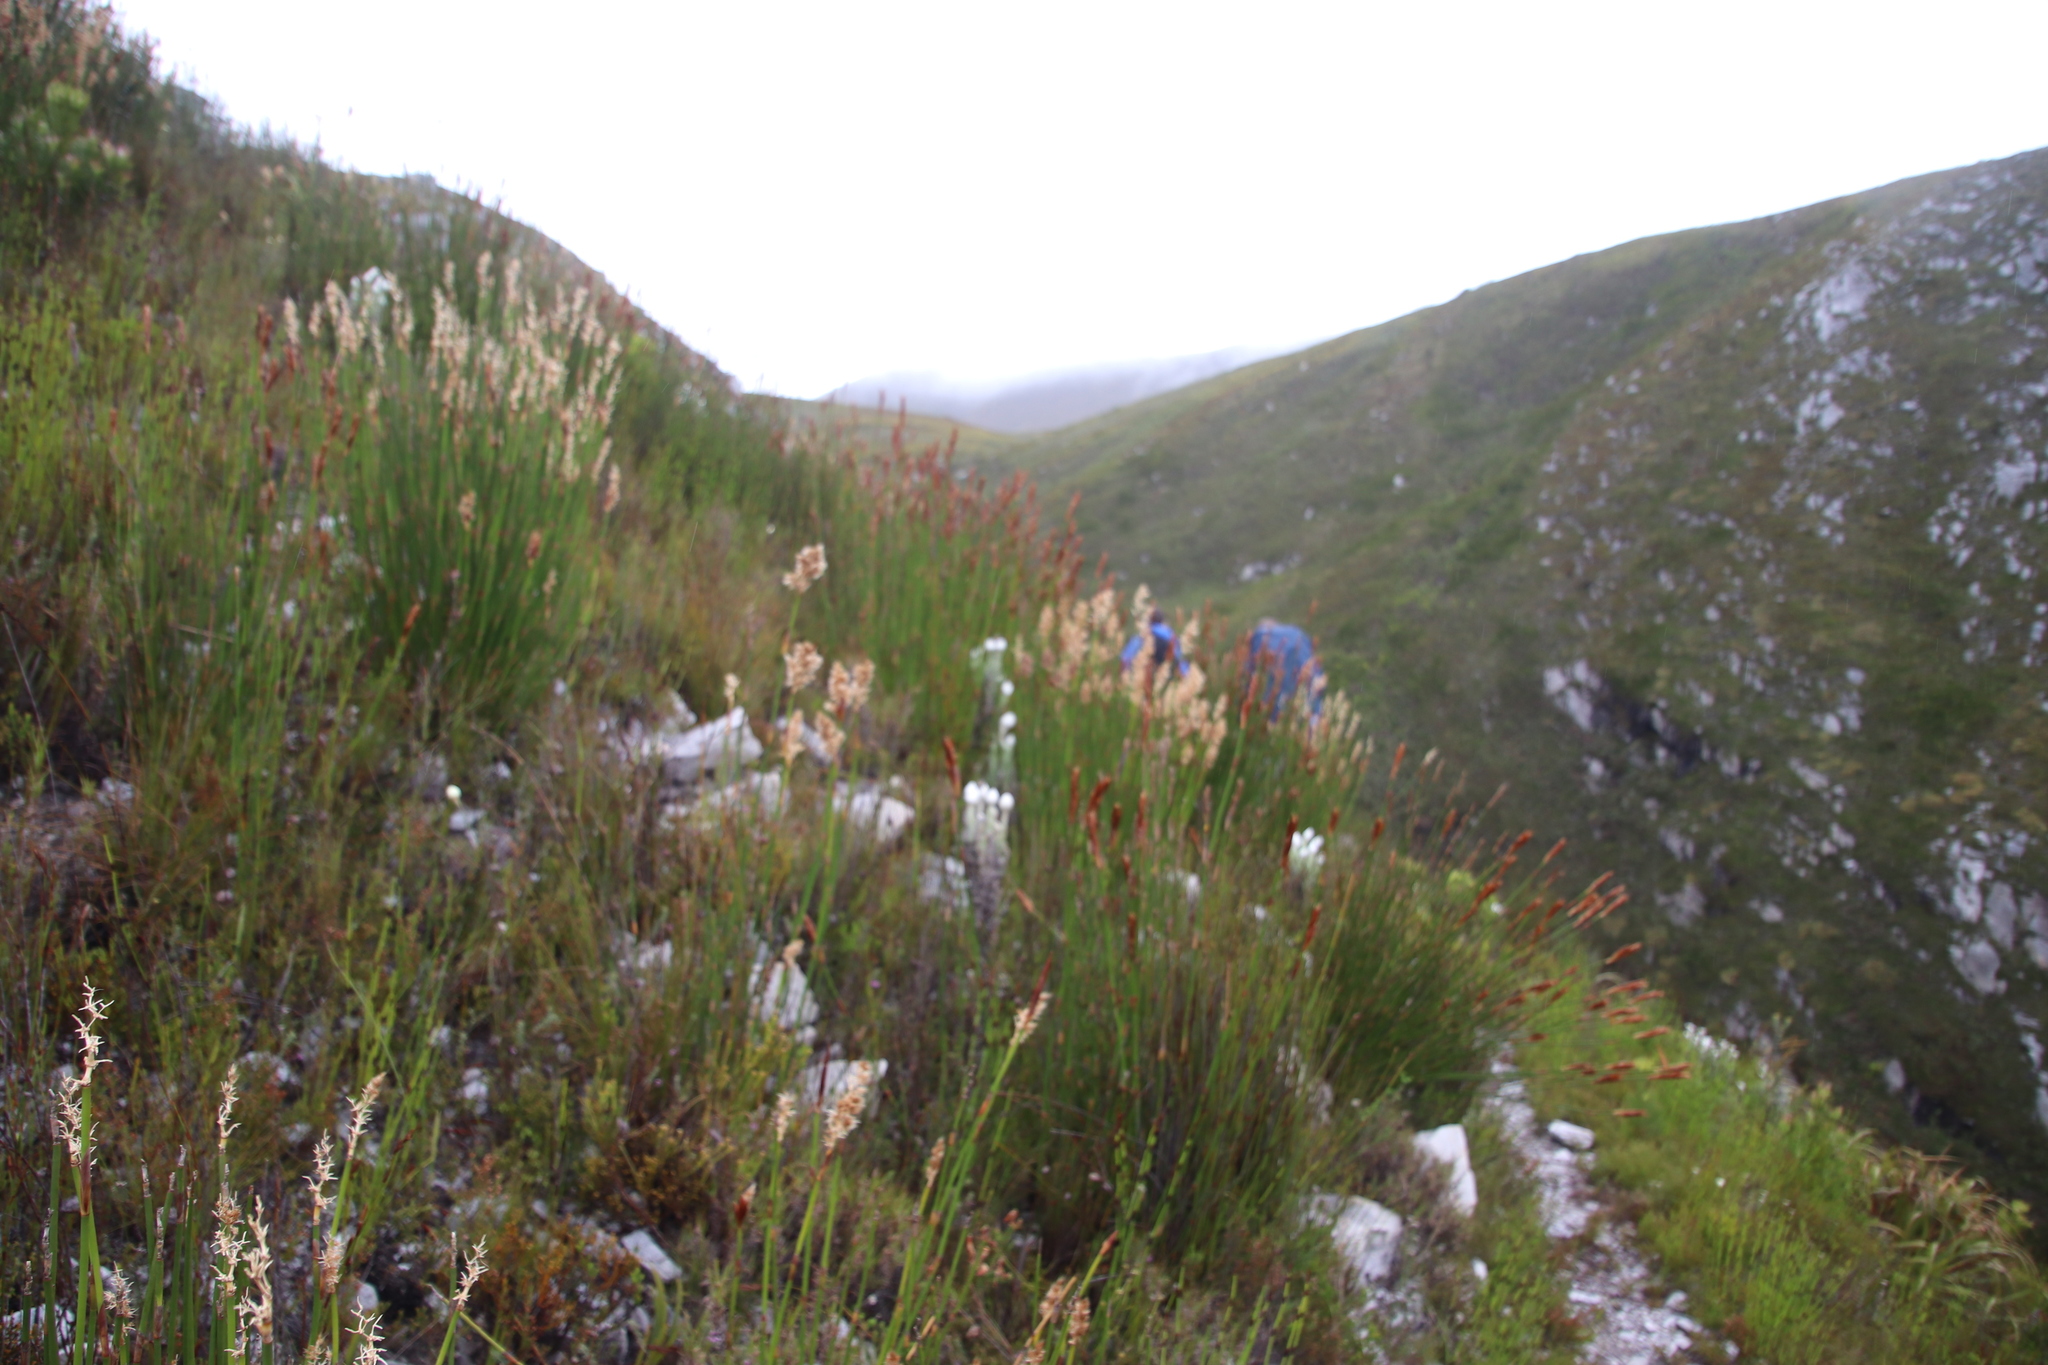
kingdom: Plantae
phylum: Tracheophyta
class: Liliopsida
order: Poales
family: Restionaceae
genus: Ceratocaryum
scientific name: Ceratocaryum caespitosum
